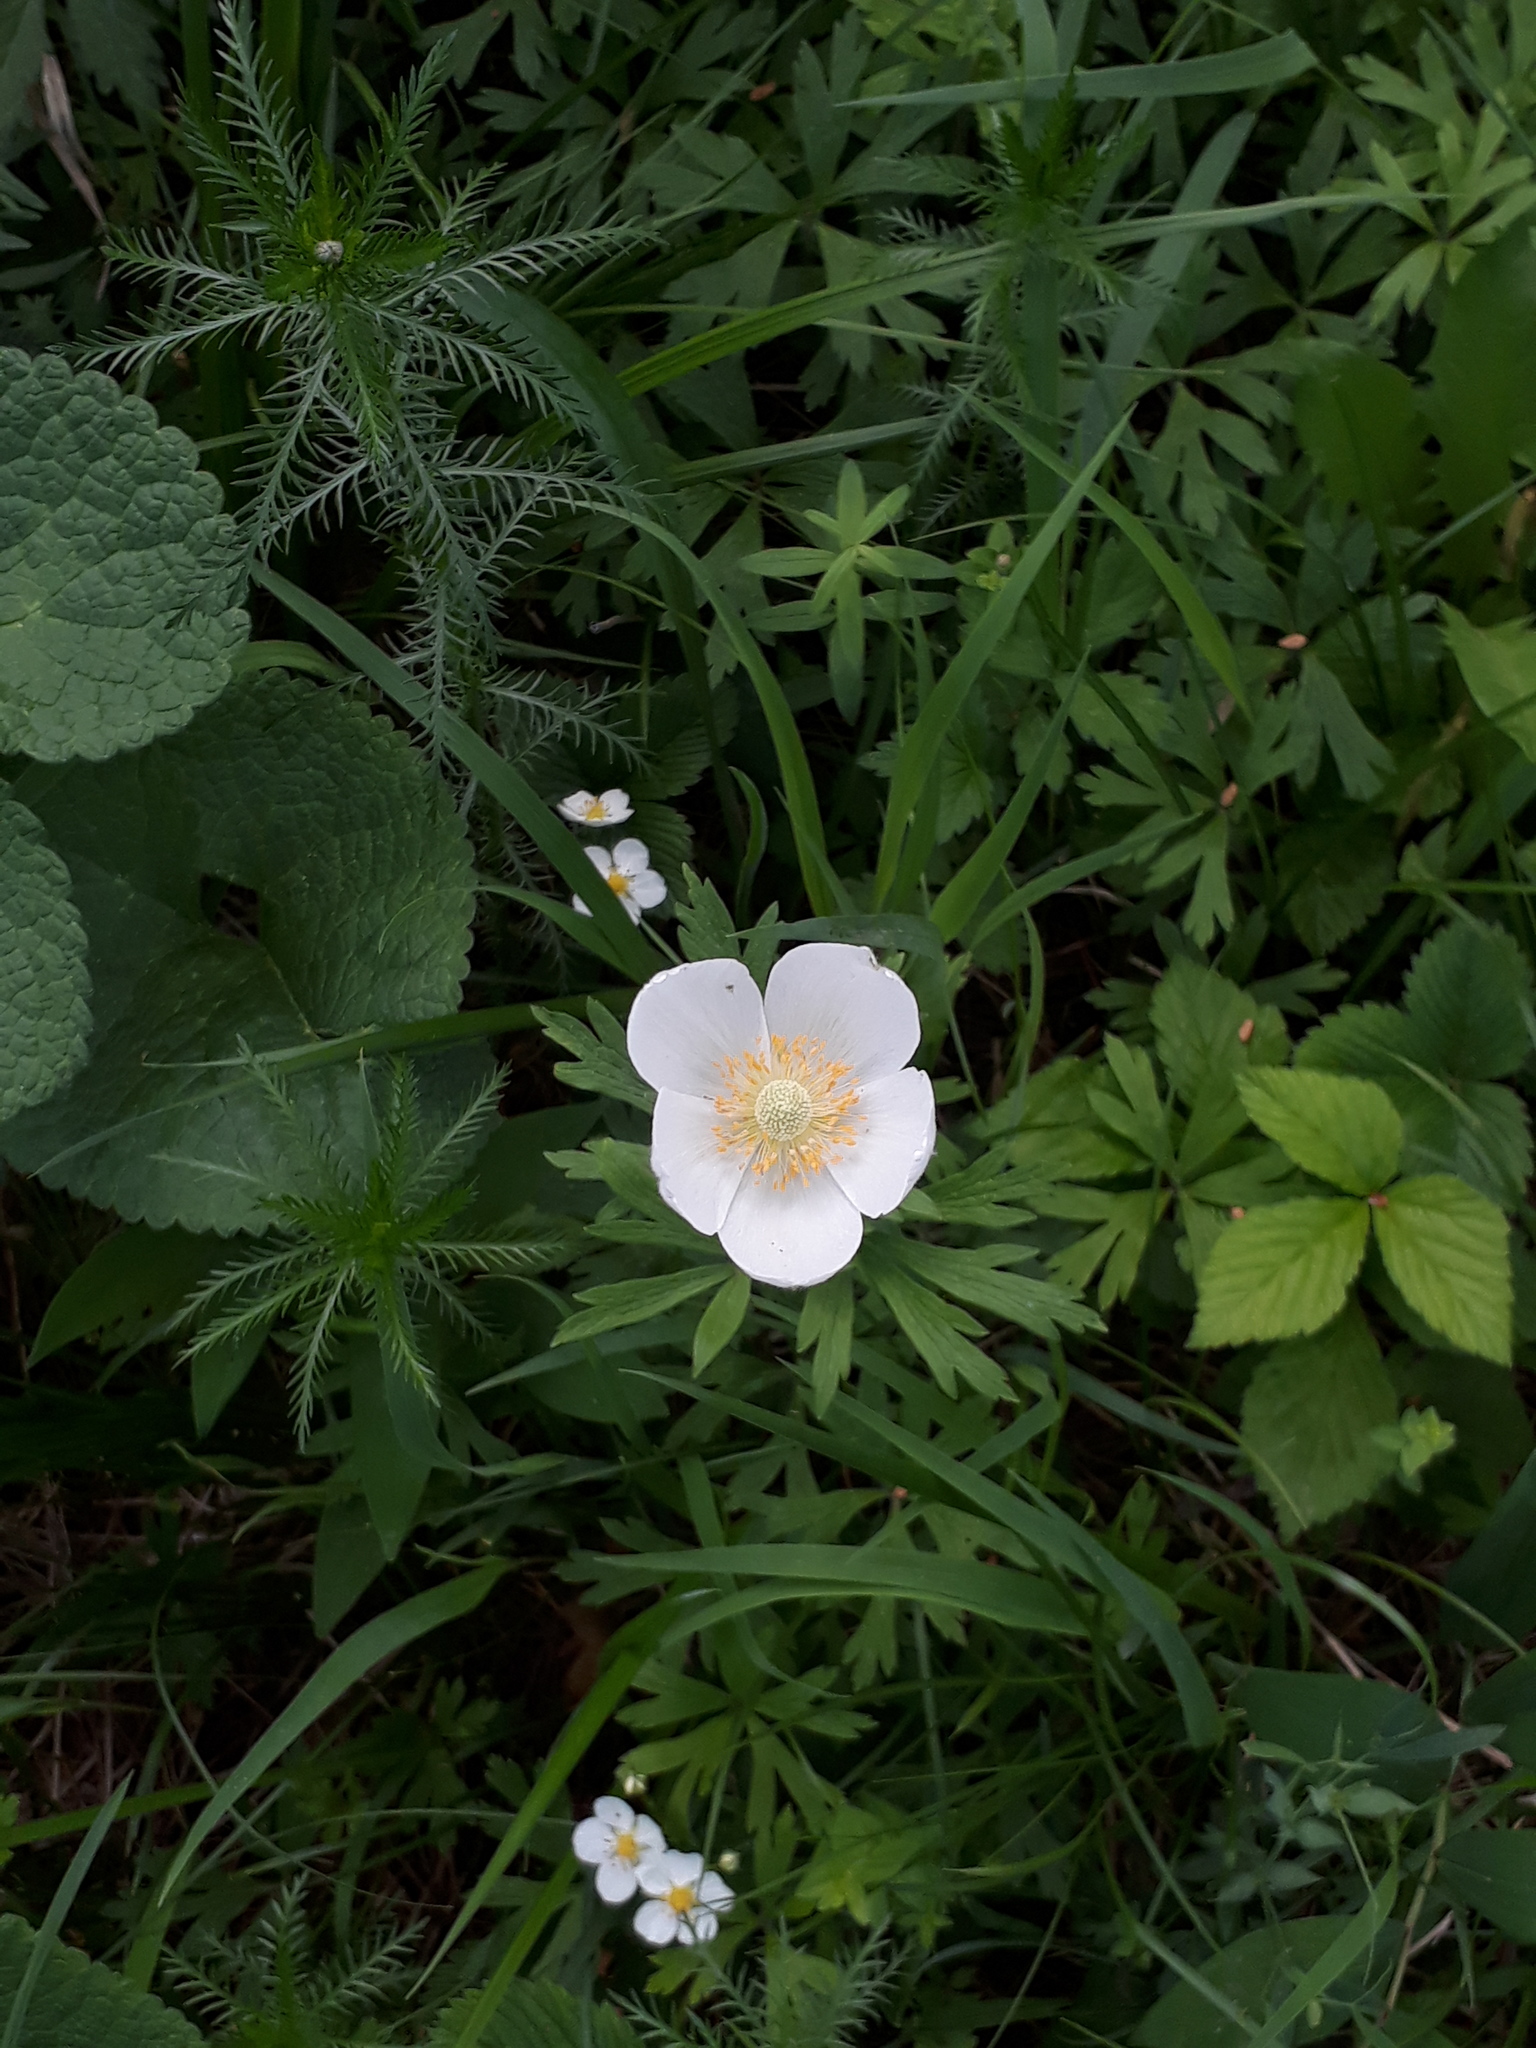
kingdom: Plantae
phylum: Tracheophyta
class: Magnoliopsida
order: Ranunculales
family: Ranunculaceae
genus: Anemone
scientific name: Anemone sylvestris
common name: Snowdrop anemone
